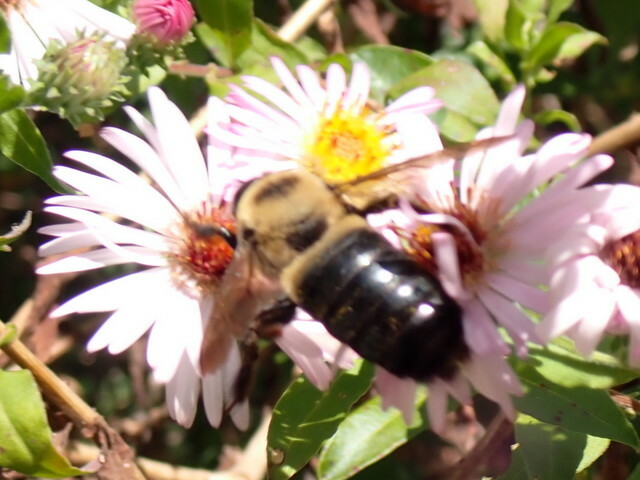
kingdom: Animalia
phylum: Arthropoda
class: Insecta
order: Hymenoptera
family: Apidae
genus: Xylocopa
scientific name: Xylocopa virginica
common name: Carpenter bee
